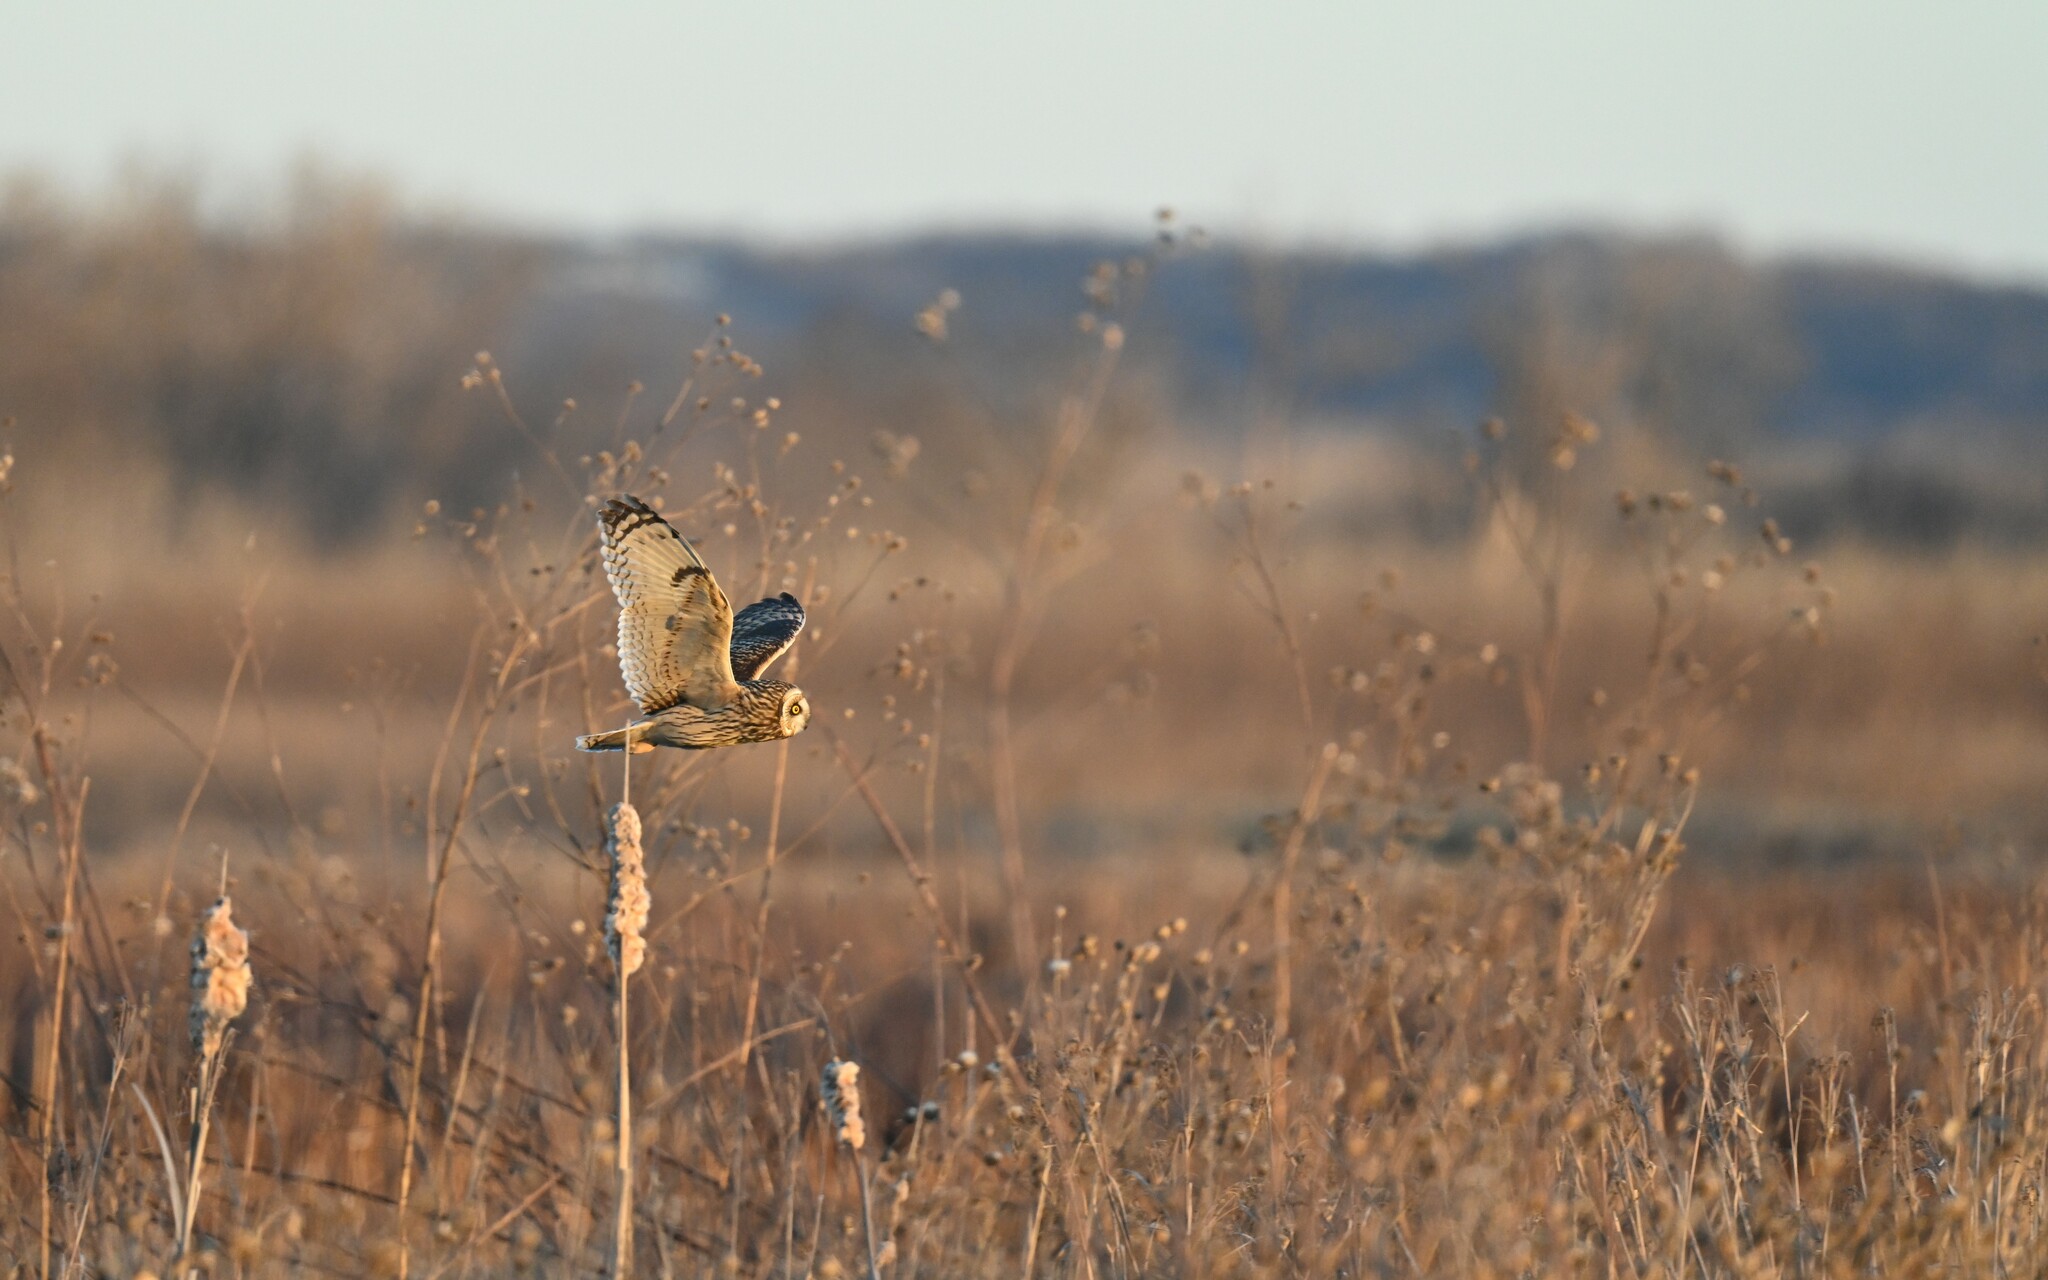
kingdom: Animalia
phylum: Chordata
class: Aves
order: Strigiformes
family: Strigidae
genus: Asio
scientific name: Asio flammeus
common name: Short-eared owl
